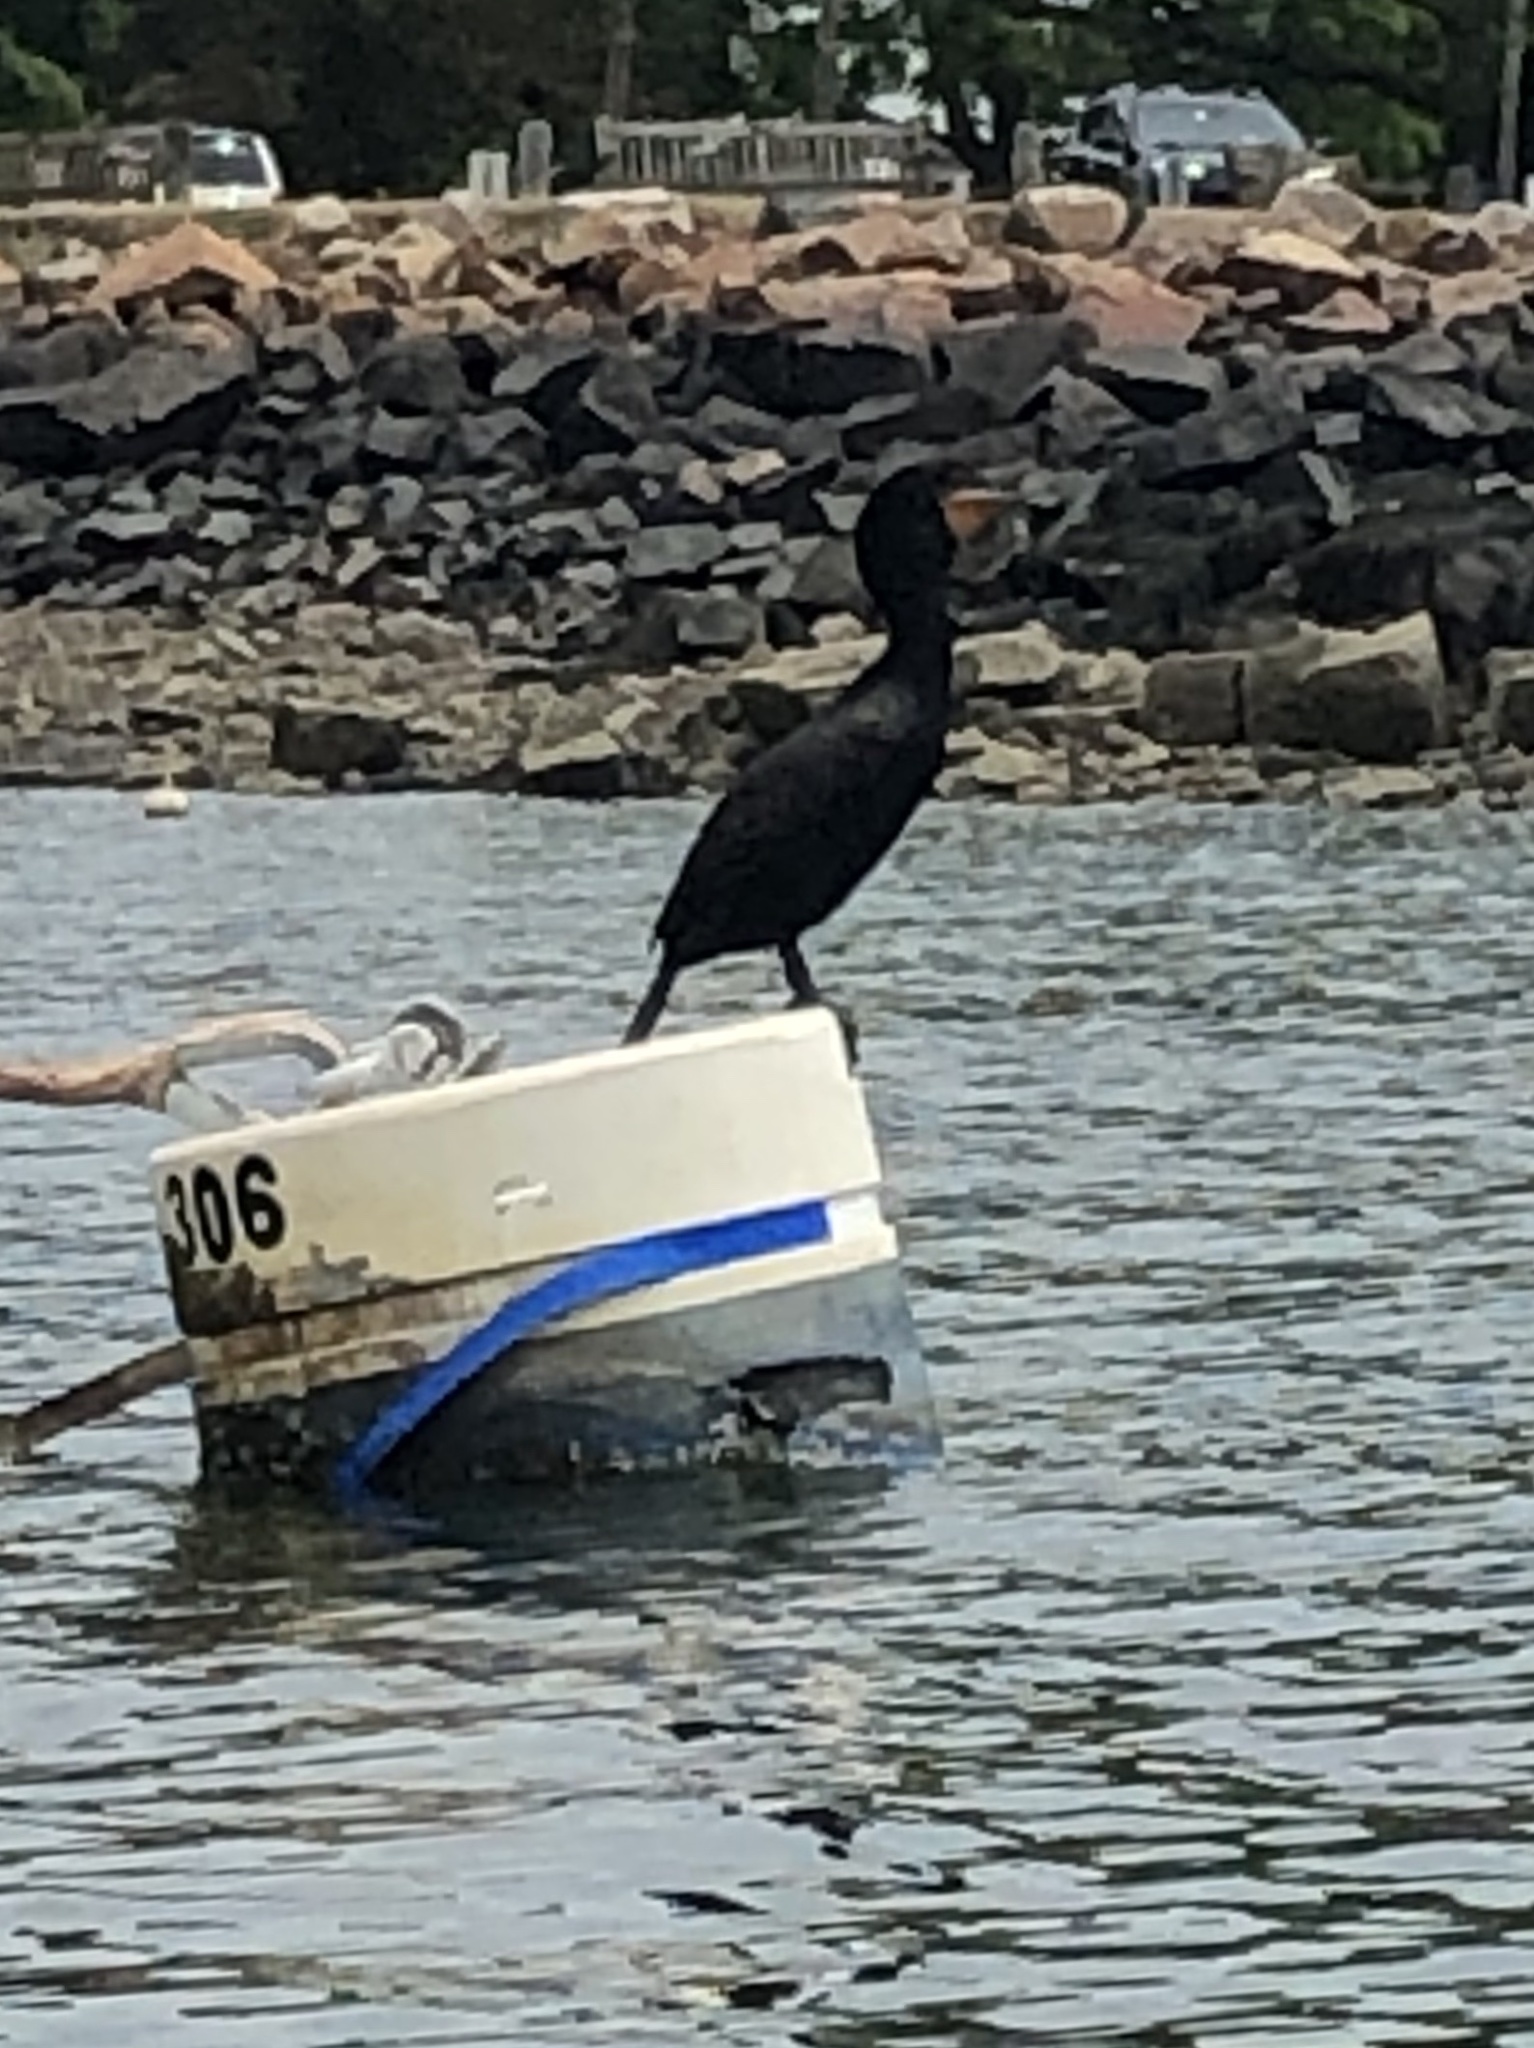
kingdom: Animalia
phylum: Chordata
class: Aves
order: Suliformes
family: Phalacrocoracidae
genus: Phalacrocorax
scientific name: Phalacrocorax auritus
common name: Double-crested cormorant
